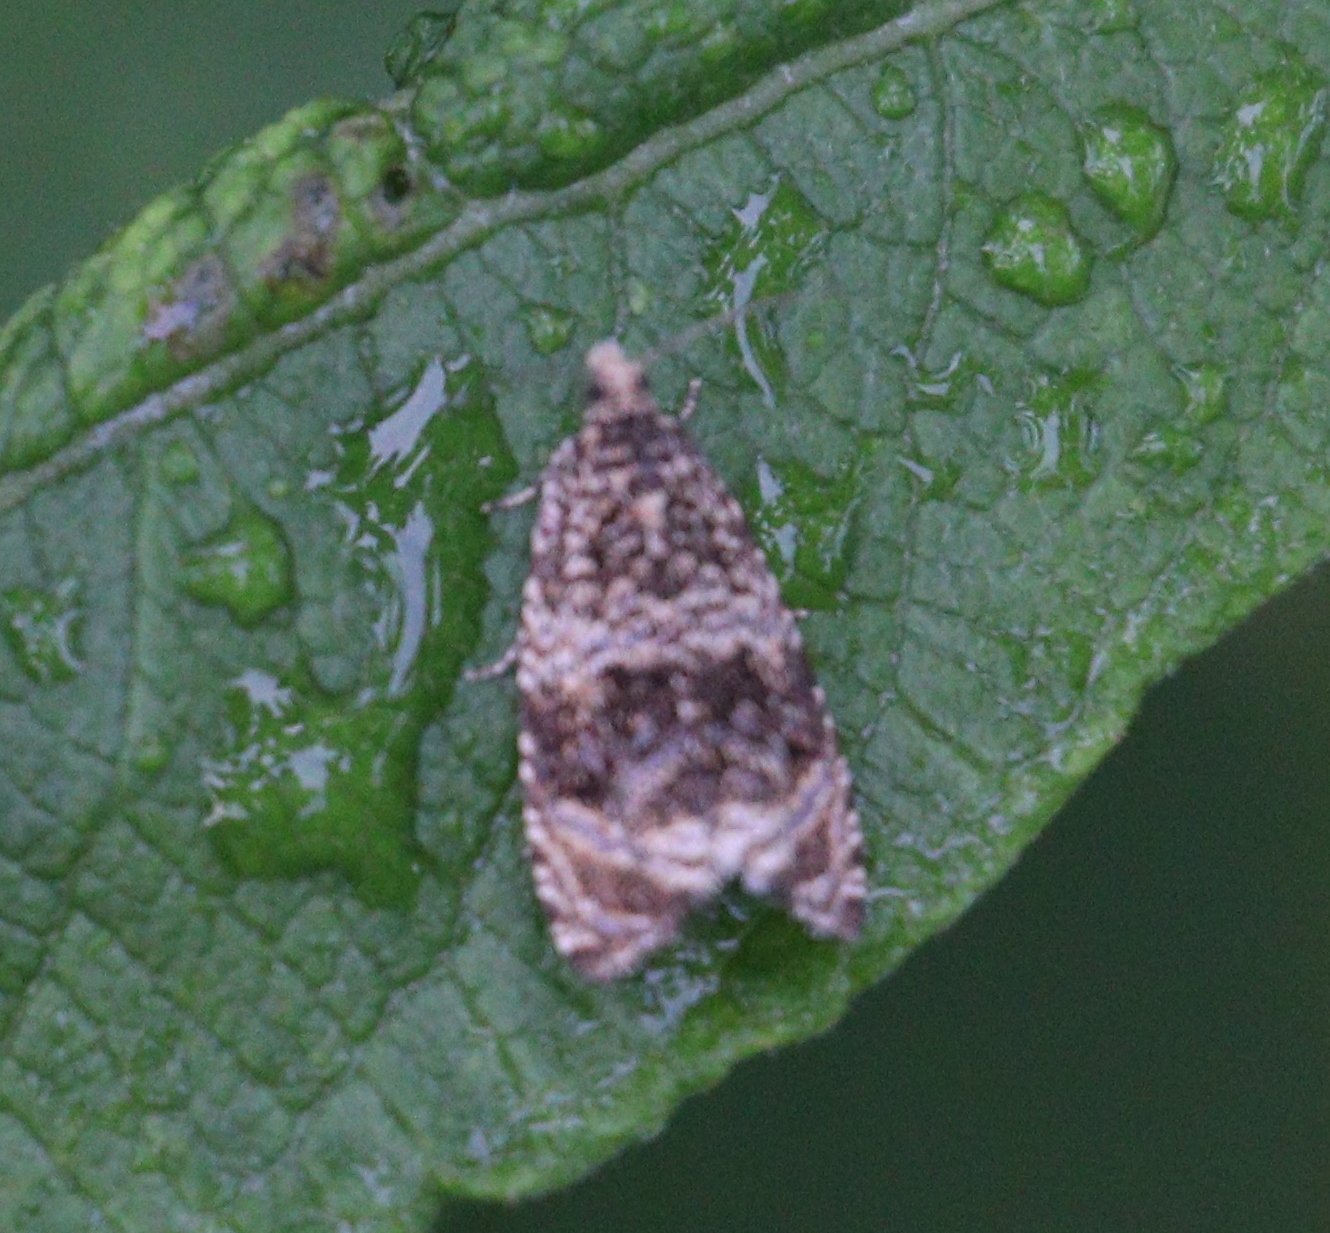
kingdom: Animalia
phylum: Arthropoda
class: Insecta
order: Lepidoptera
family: Tortricidae
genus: Syricoris
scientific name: Syricoris lacunana
